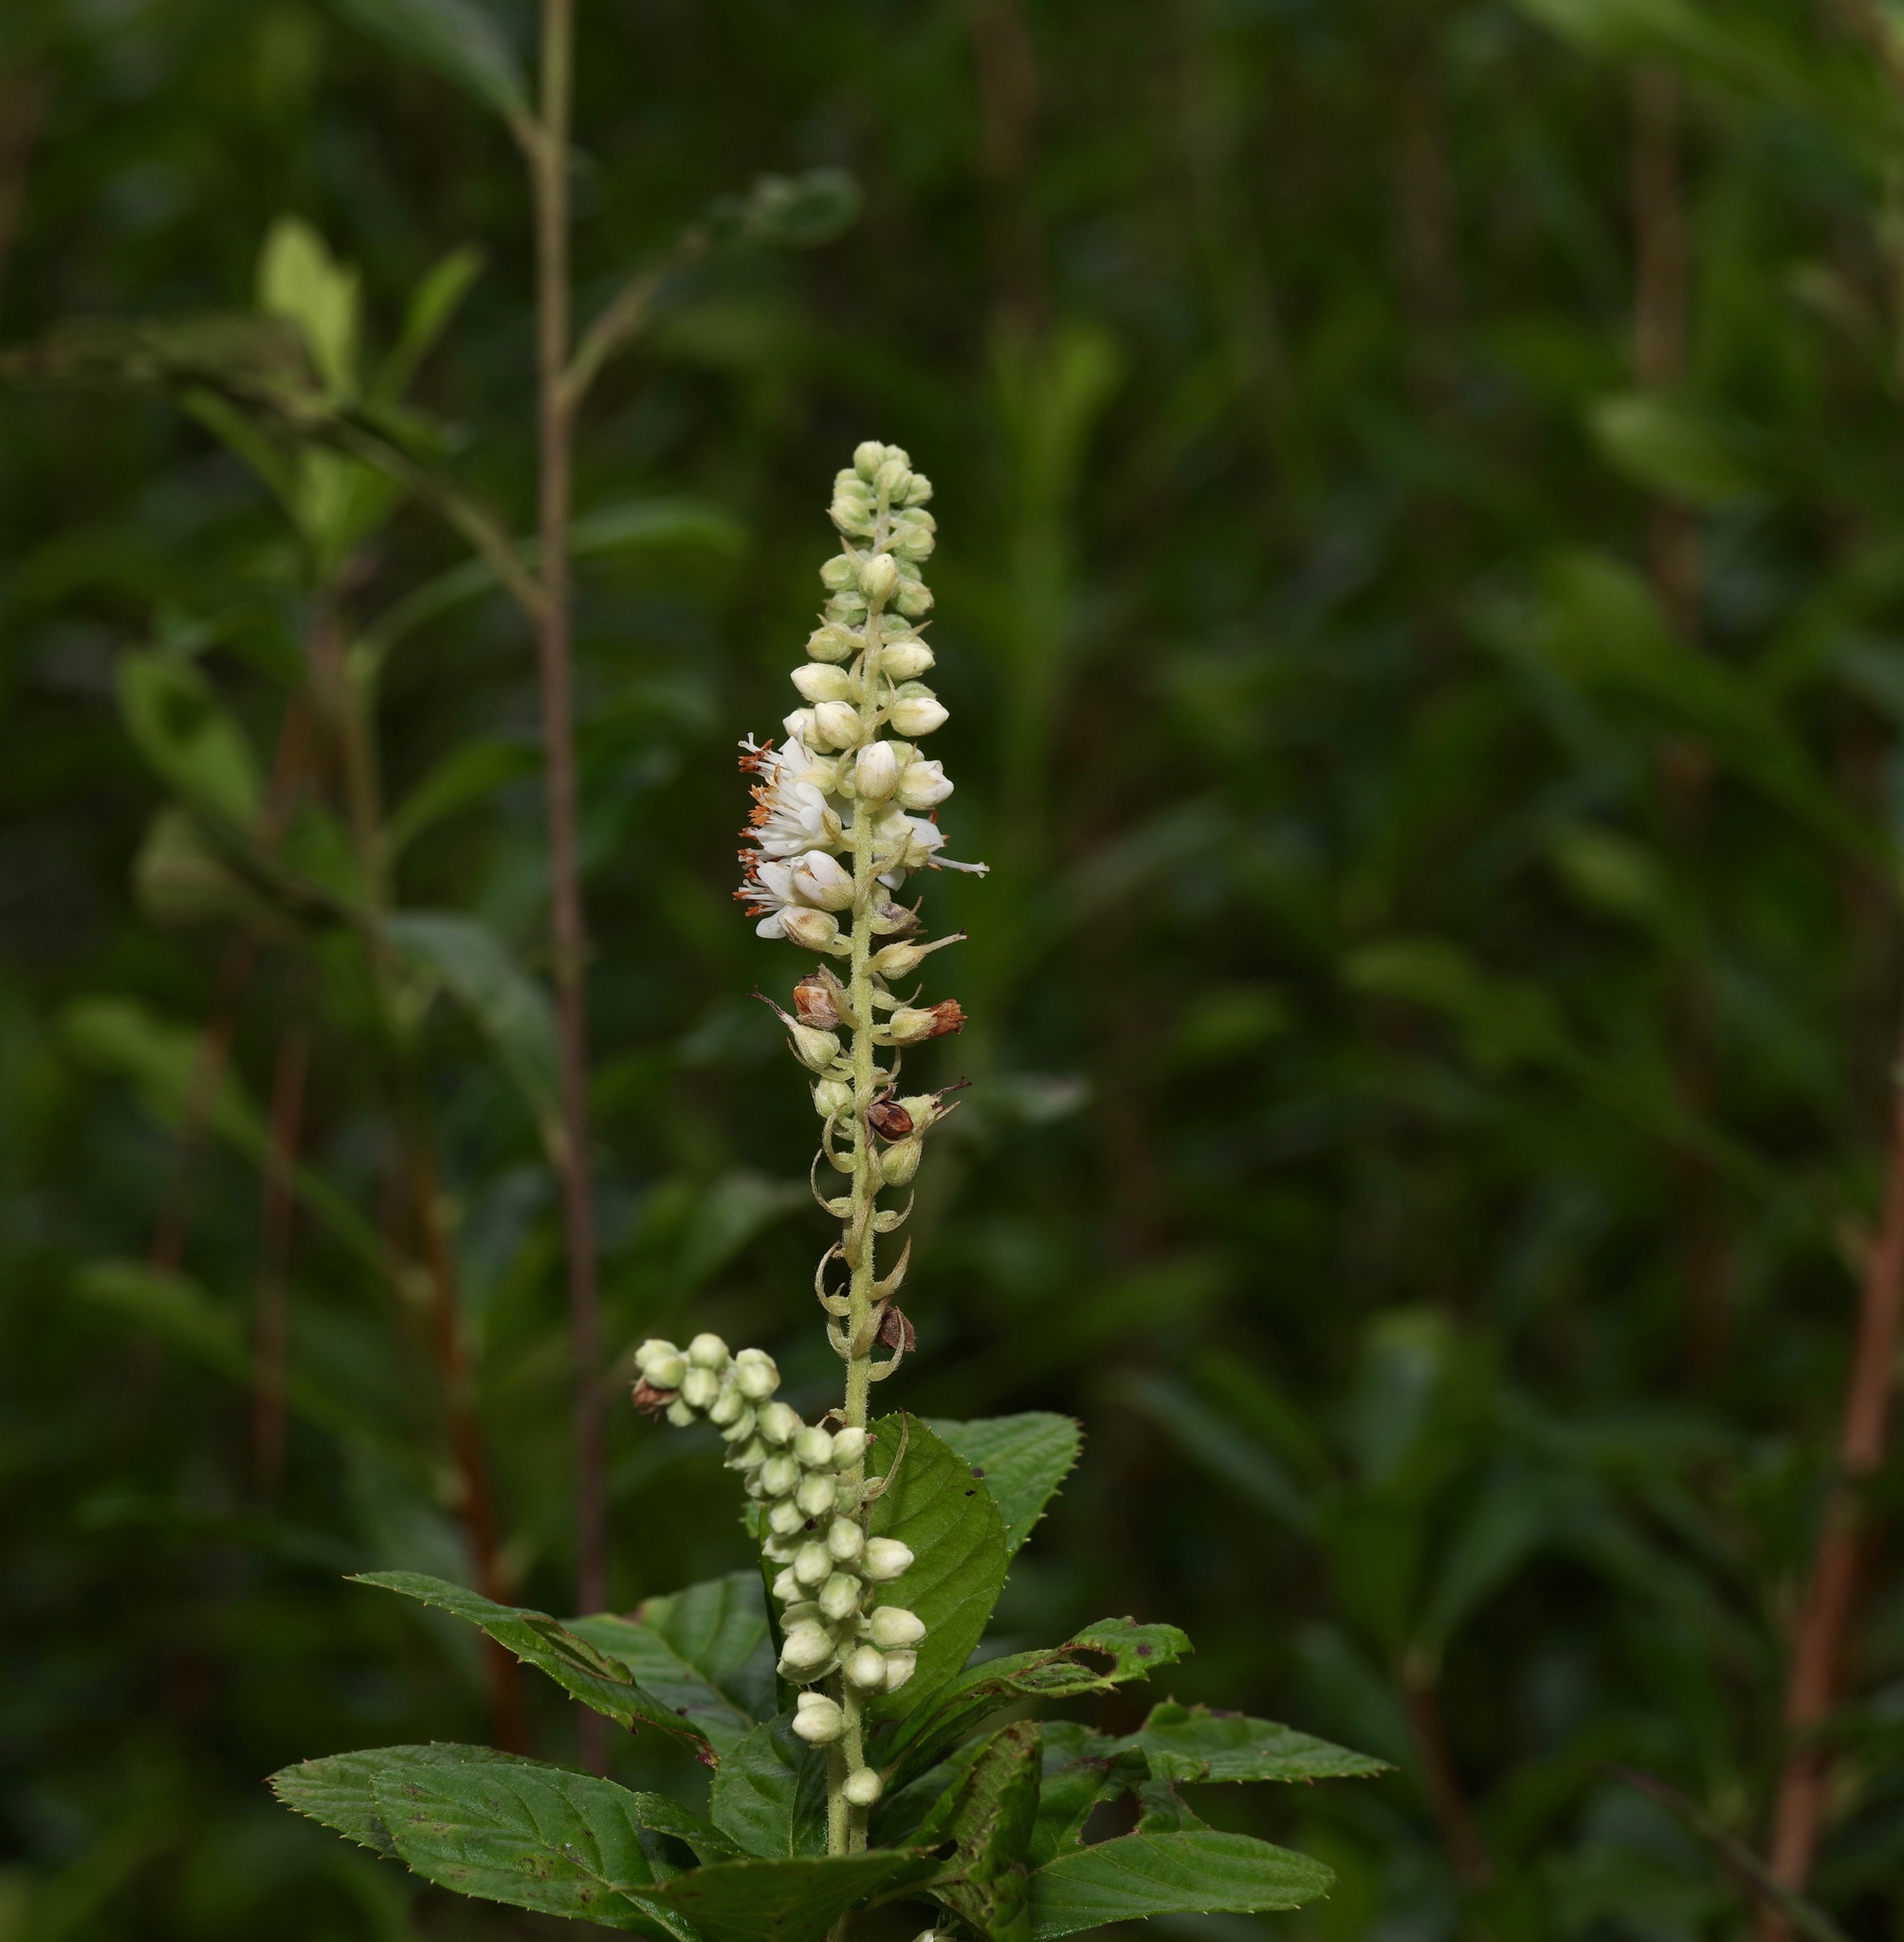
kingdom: Plantae
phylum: Tracheophyta
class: Magnoliopsida
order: Ericales
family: Clethraceae
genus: Clethra
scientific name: Clethra alnifolia
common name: Sweet pepperbush
